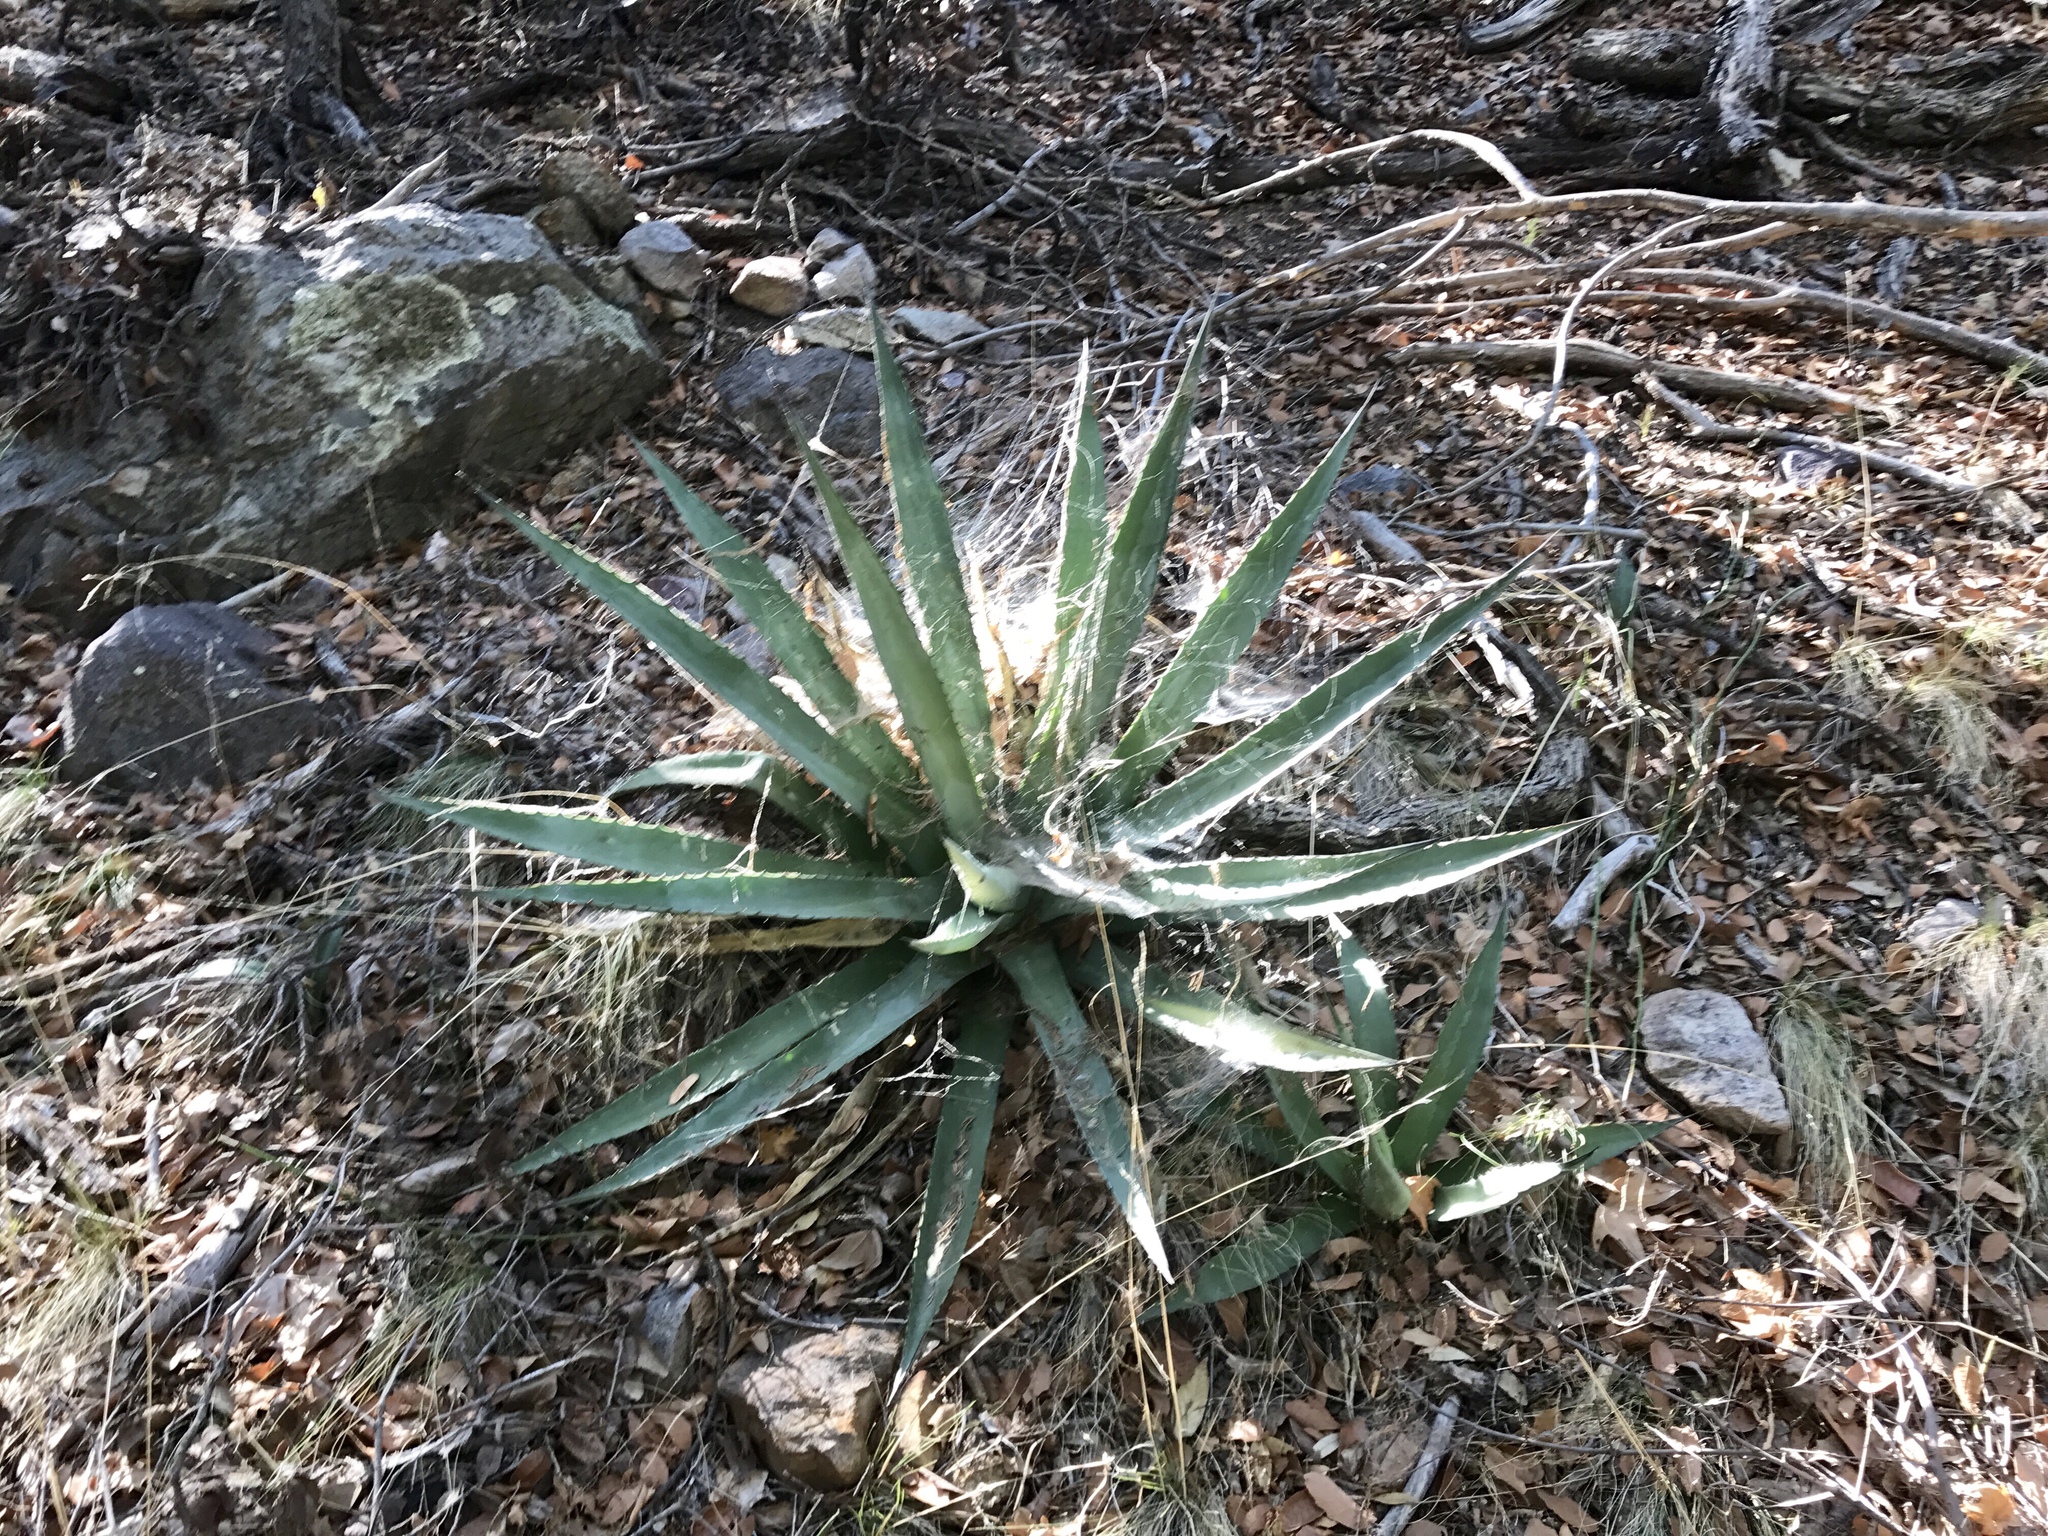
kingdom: Plantae
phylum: Tracheophyta
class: Liliopsida
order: Asparagales
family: Asparagaceae
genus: Agave
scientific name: Agave palmeri
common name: Palmer agave
